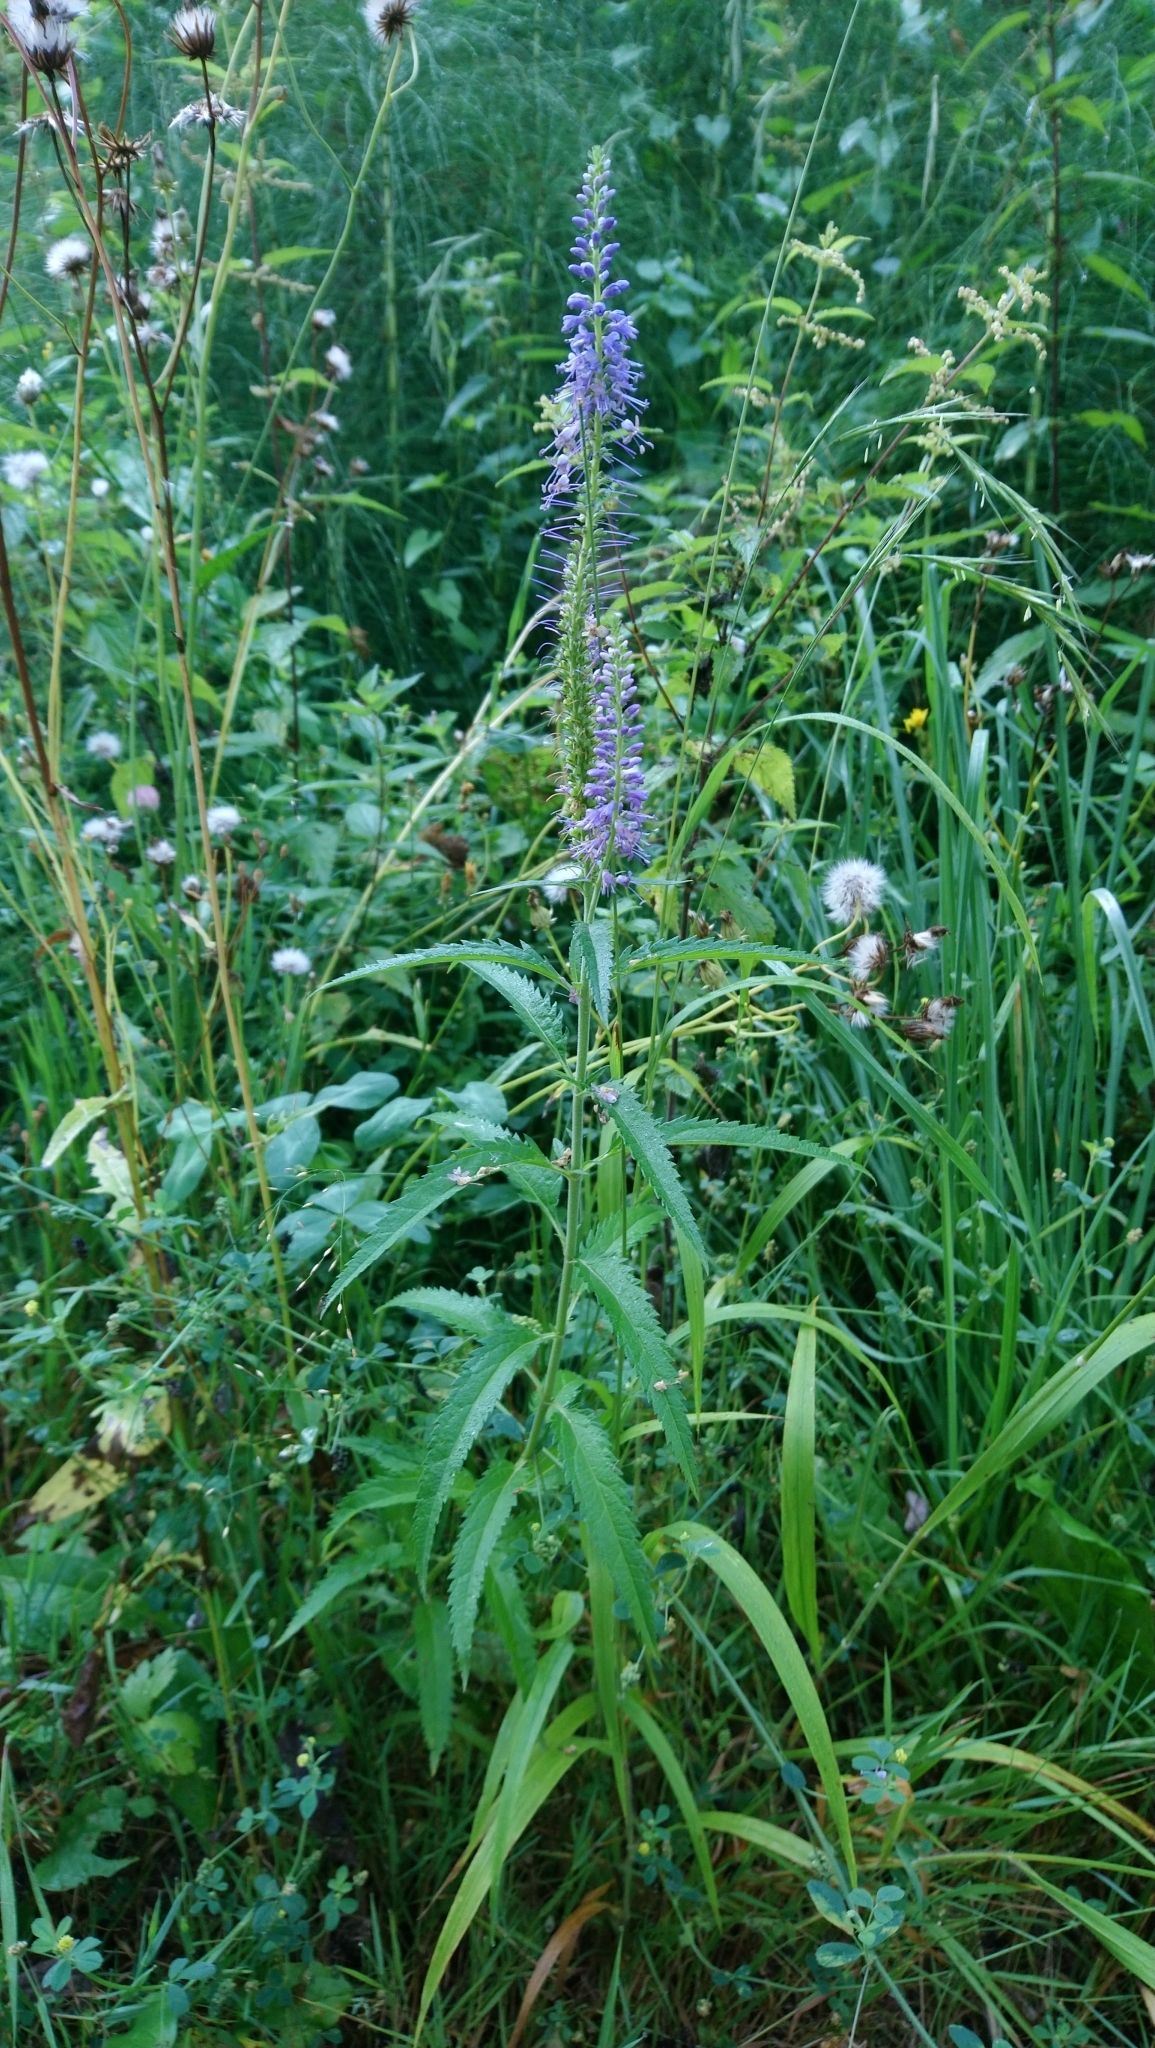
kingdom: Plantae
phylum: Tracheophyta
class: Magnoliopsida
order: Lamiales
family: Plantaginaceae
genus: Veronica
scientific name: Veronica longifolia
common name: Garden speedwell
